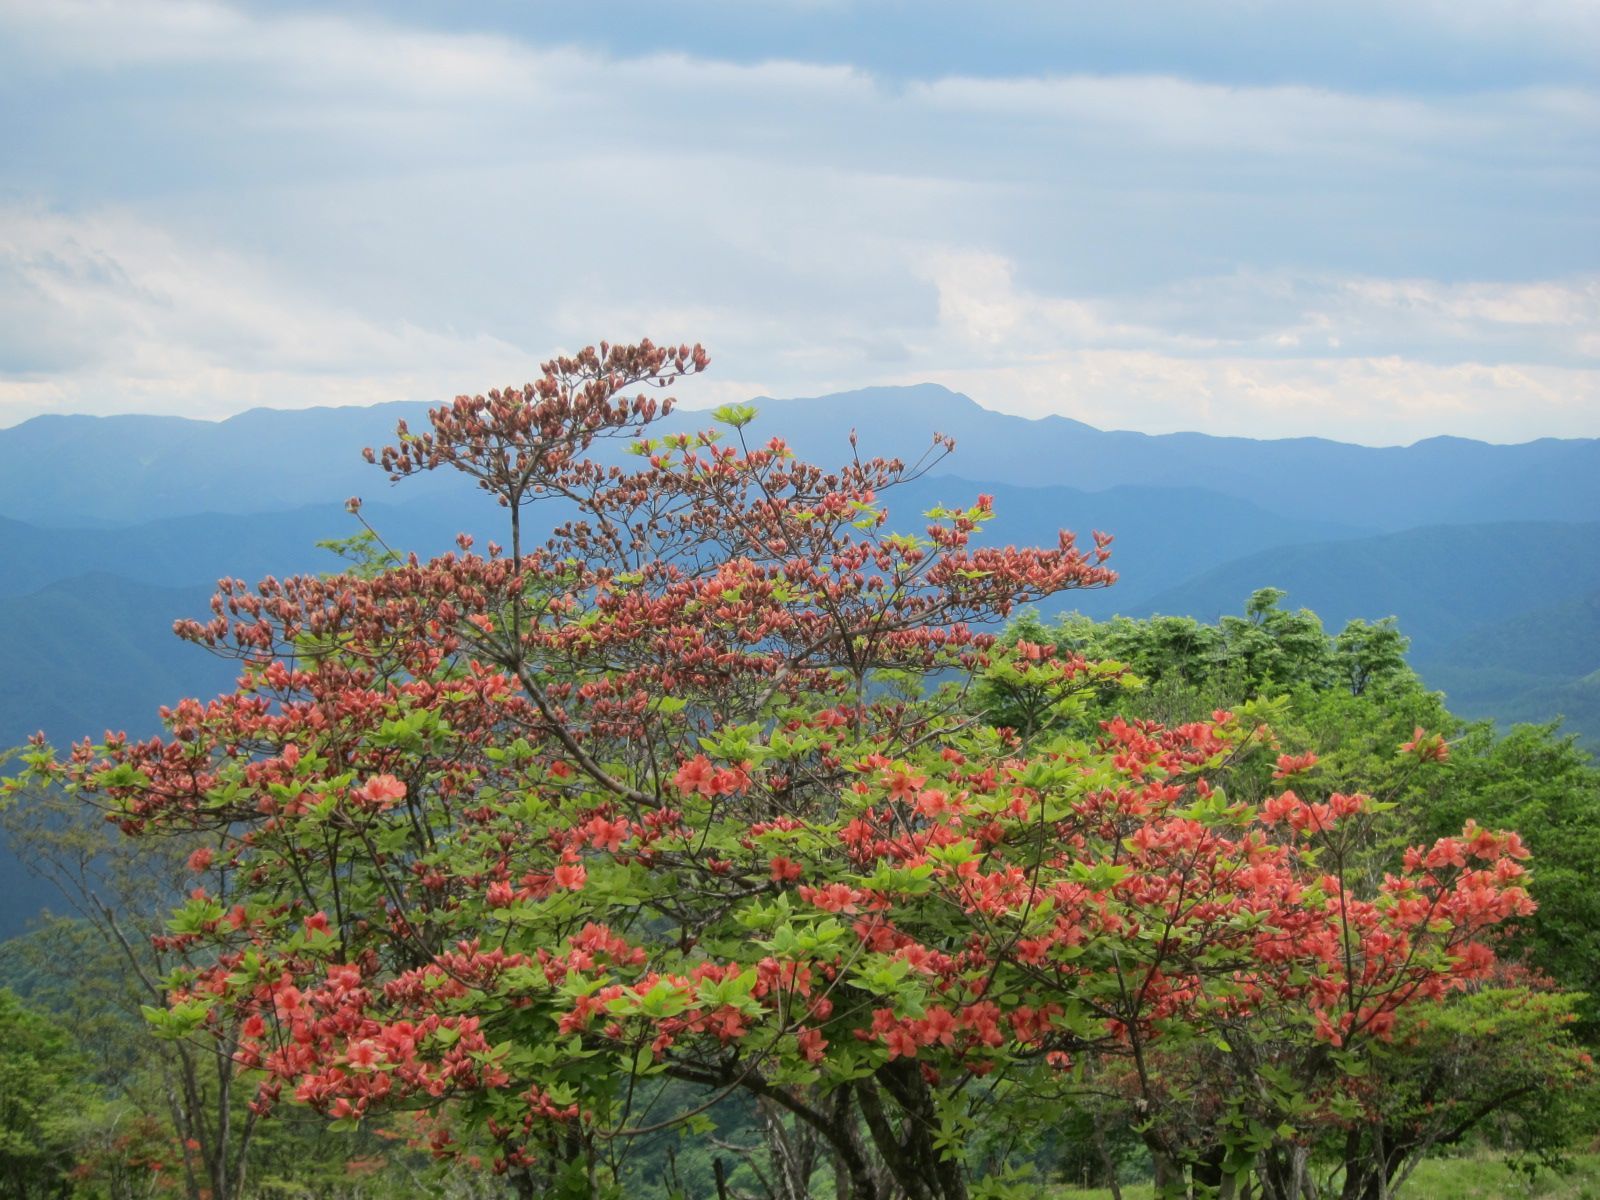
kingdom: Plantae
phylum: Tracheophyta
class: Magnoliopsida
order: Ericales
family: Ericaceae
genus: Rhododendron
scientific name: Rhododendron kaempferi
